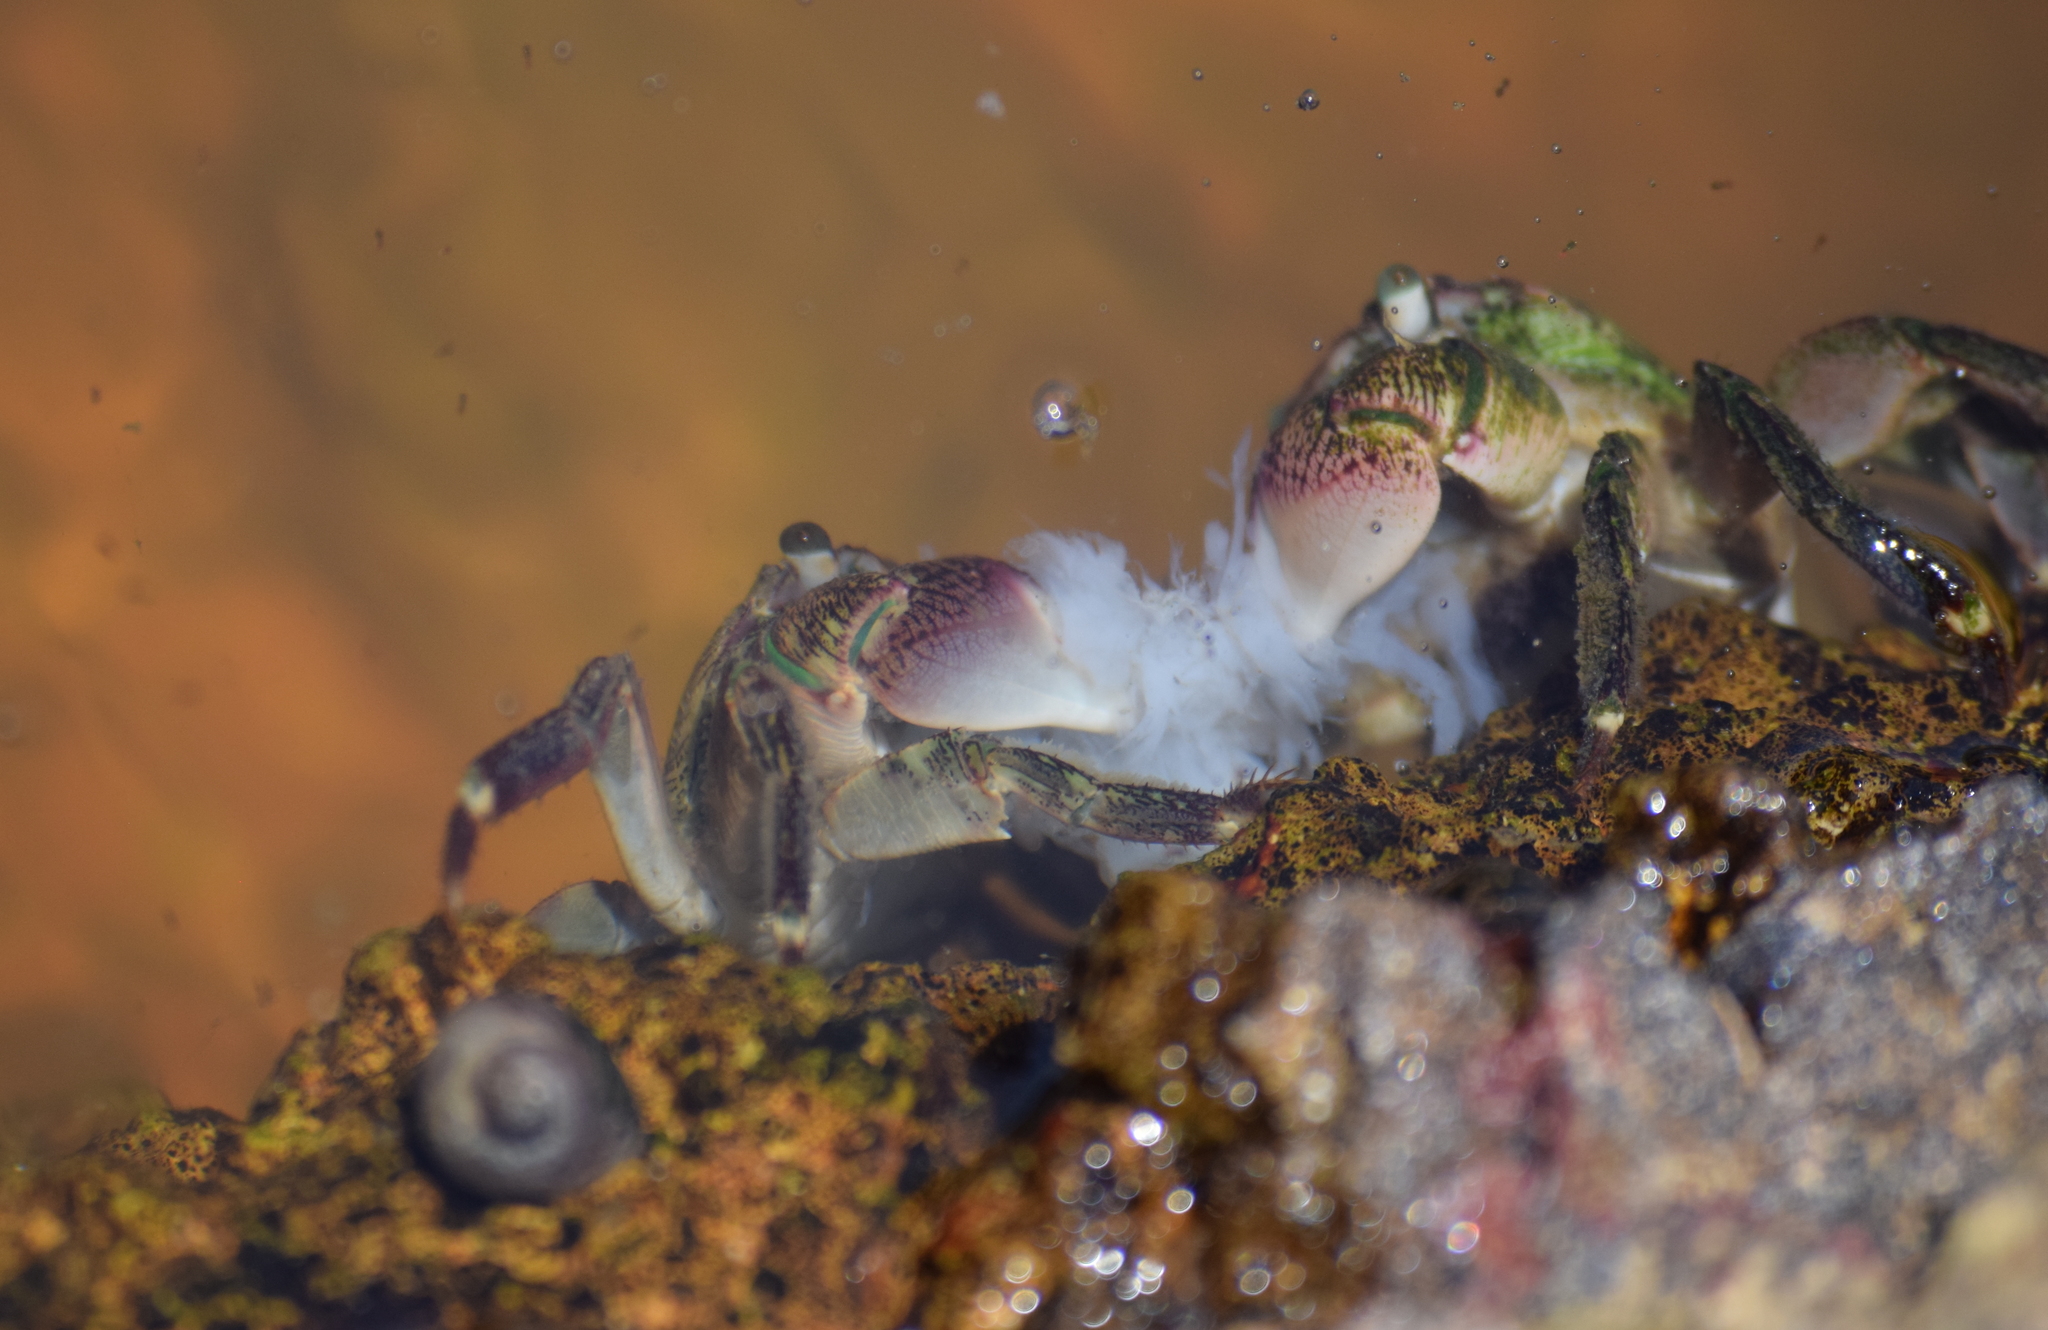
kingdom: Animalia
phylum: Arthropoda
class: Malacostraca
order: Decapoda
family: Grapsidae
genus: Pachygrapsus
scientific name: Pachygrapsus crassipes
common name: Striped shore crab
